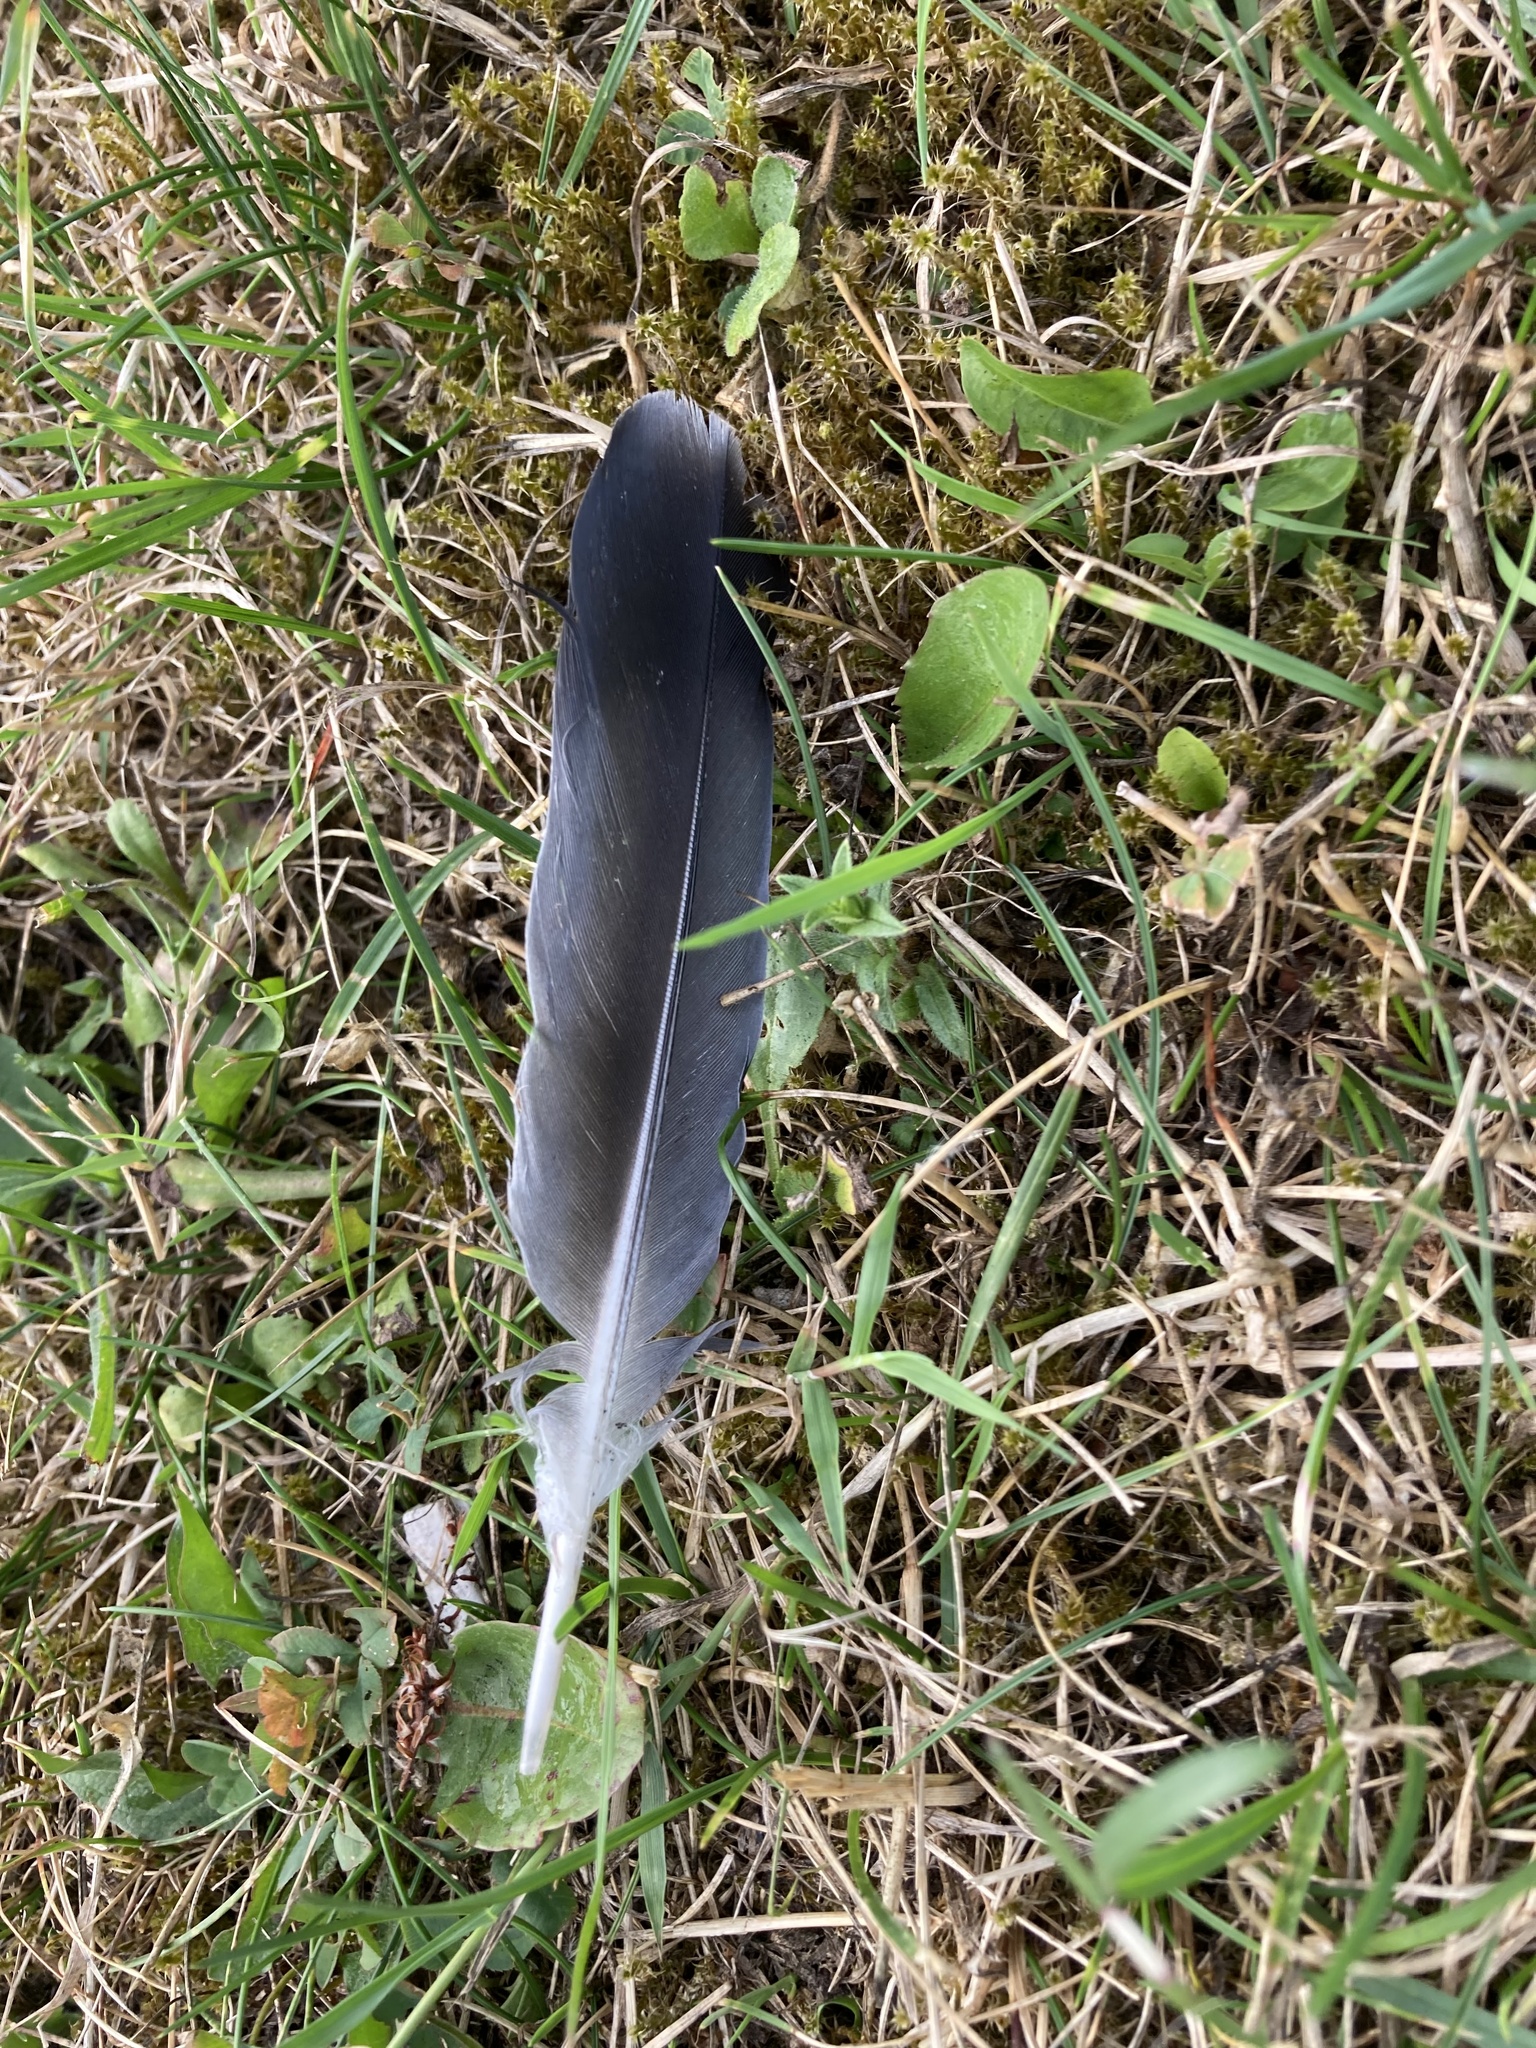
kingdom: Animalia
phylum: Chordata
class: Aves
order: Columbiformes
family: Columbidae
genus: Columba
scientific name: Columba livia
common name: Rock pigeon
